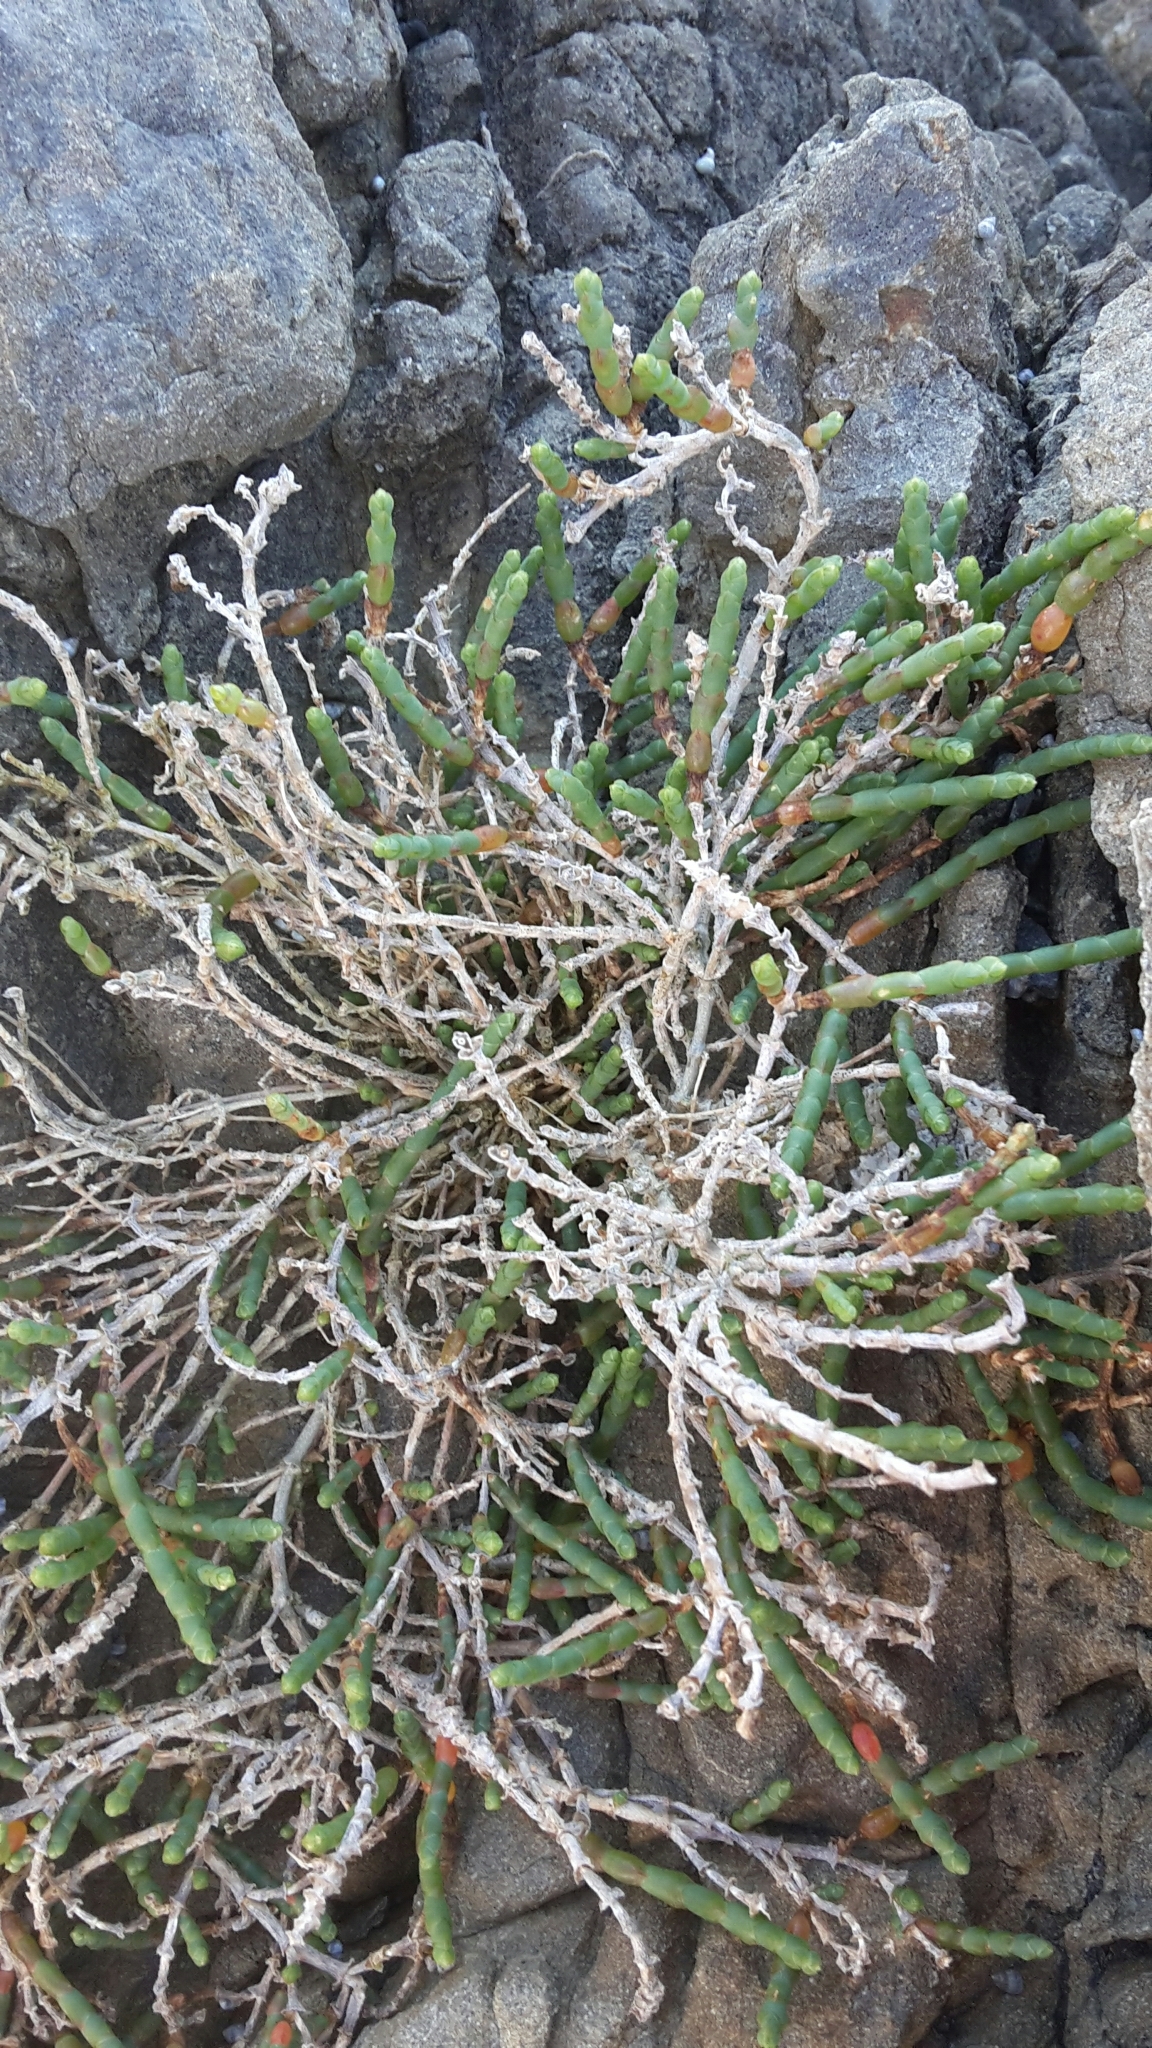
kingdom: Plantae
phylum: Tracheophyta
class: Magnoliopsida
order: Caryophyllales
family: Amaranthaceae
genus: Salicornia
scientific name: Salicornia quinqueflora
